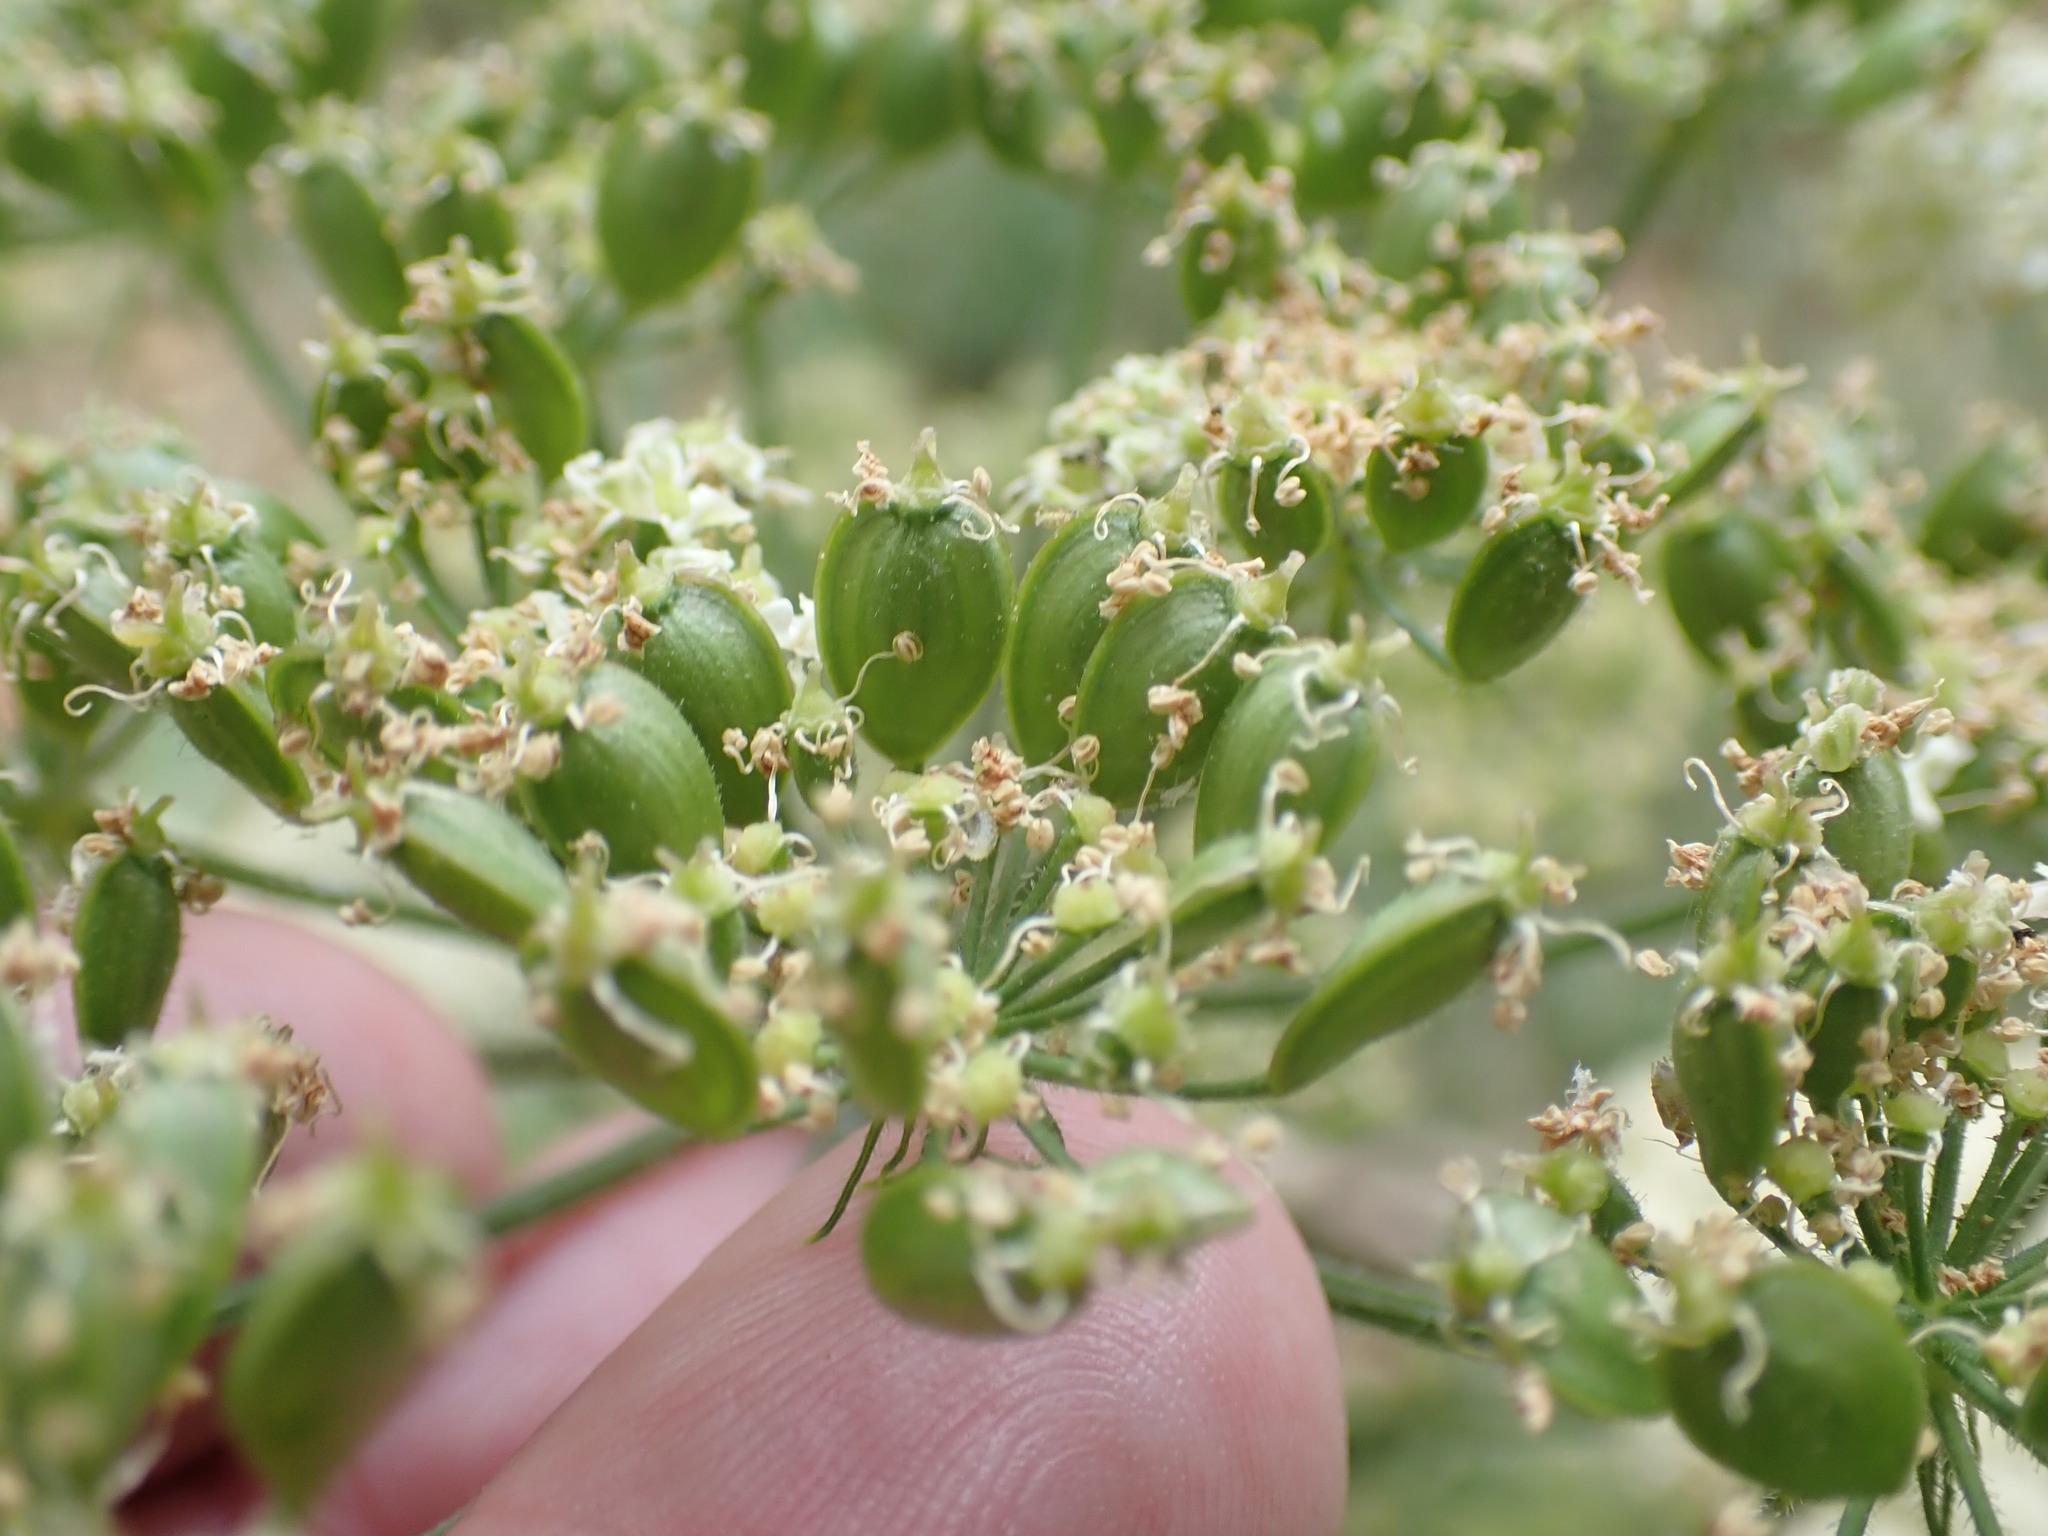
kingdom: Plantae
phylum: Tracheophyta
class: Magnoliopsida
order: Apiales
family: Apiaceae
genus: Heracleum
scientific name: Heracleum sphondylium
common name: Hogweed
